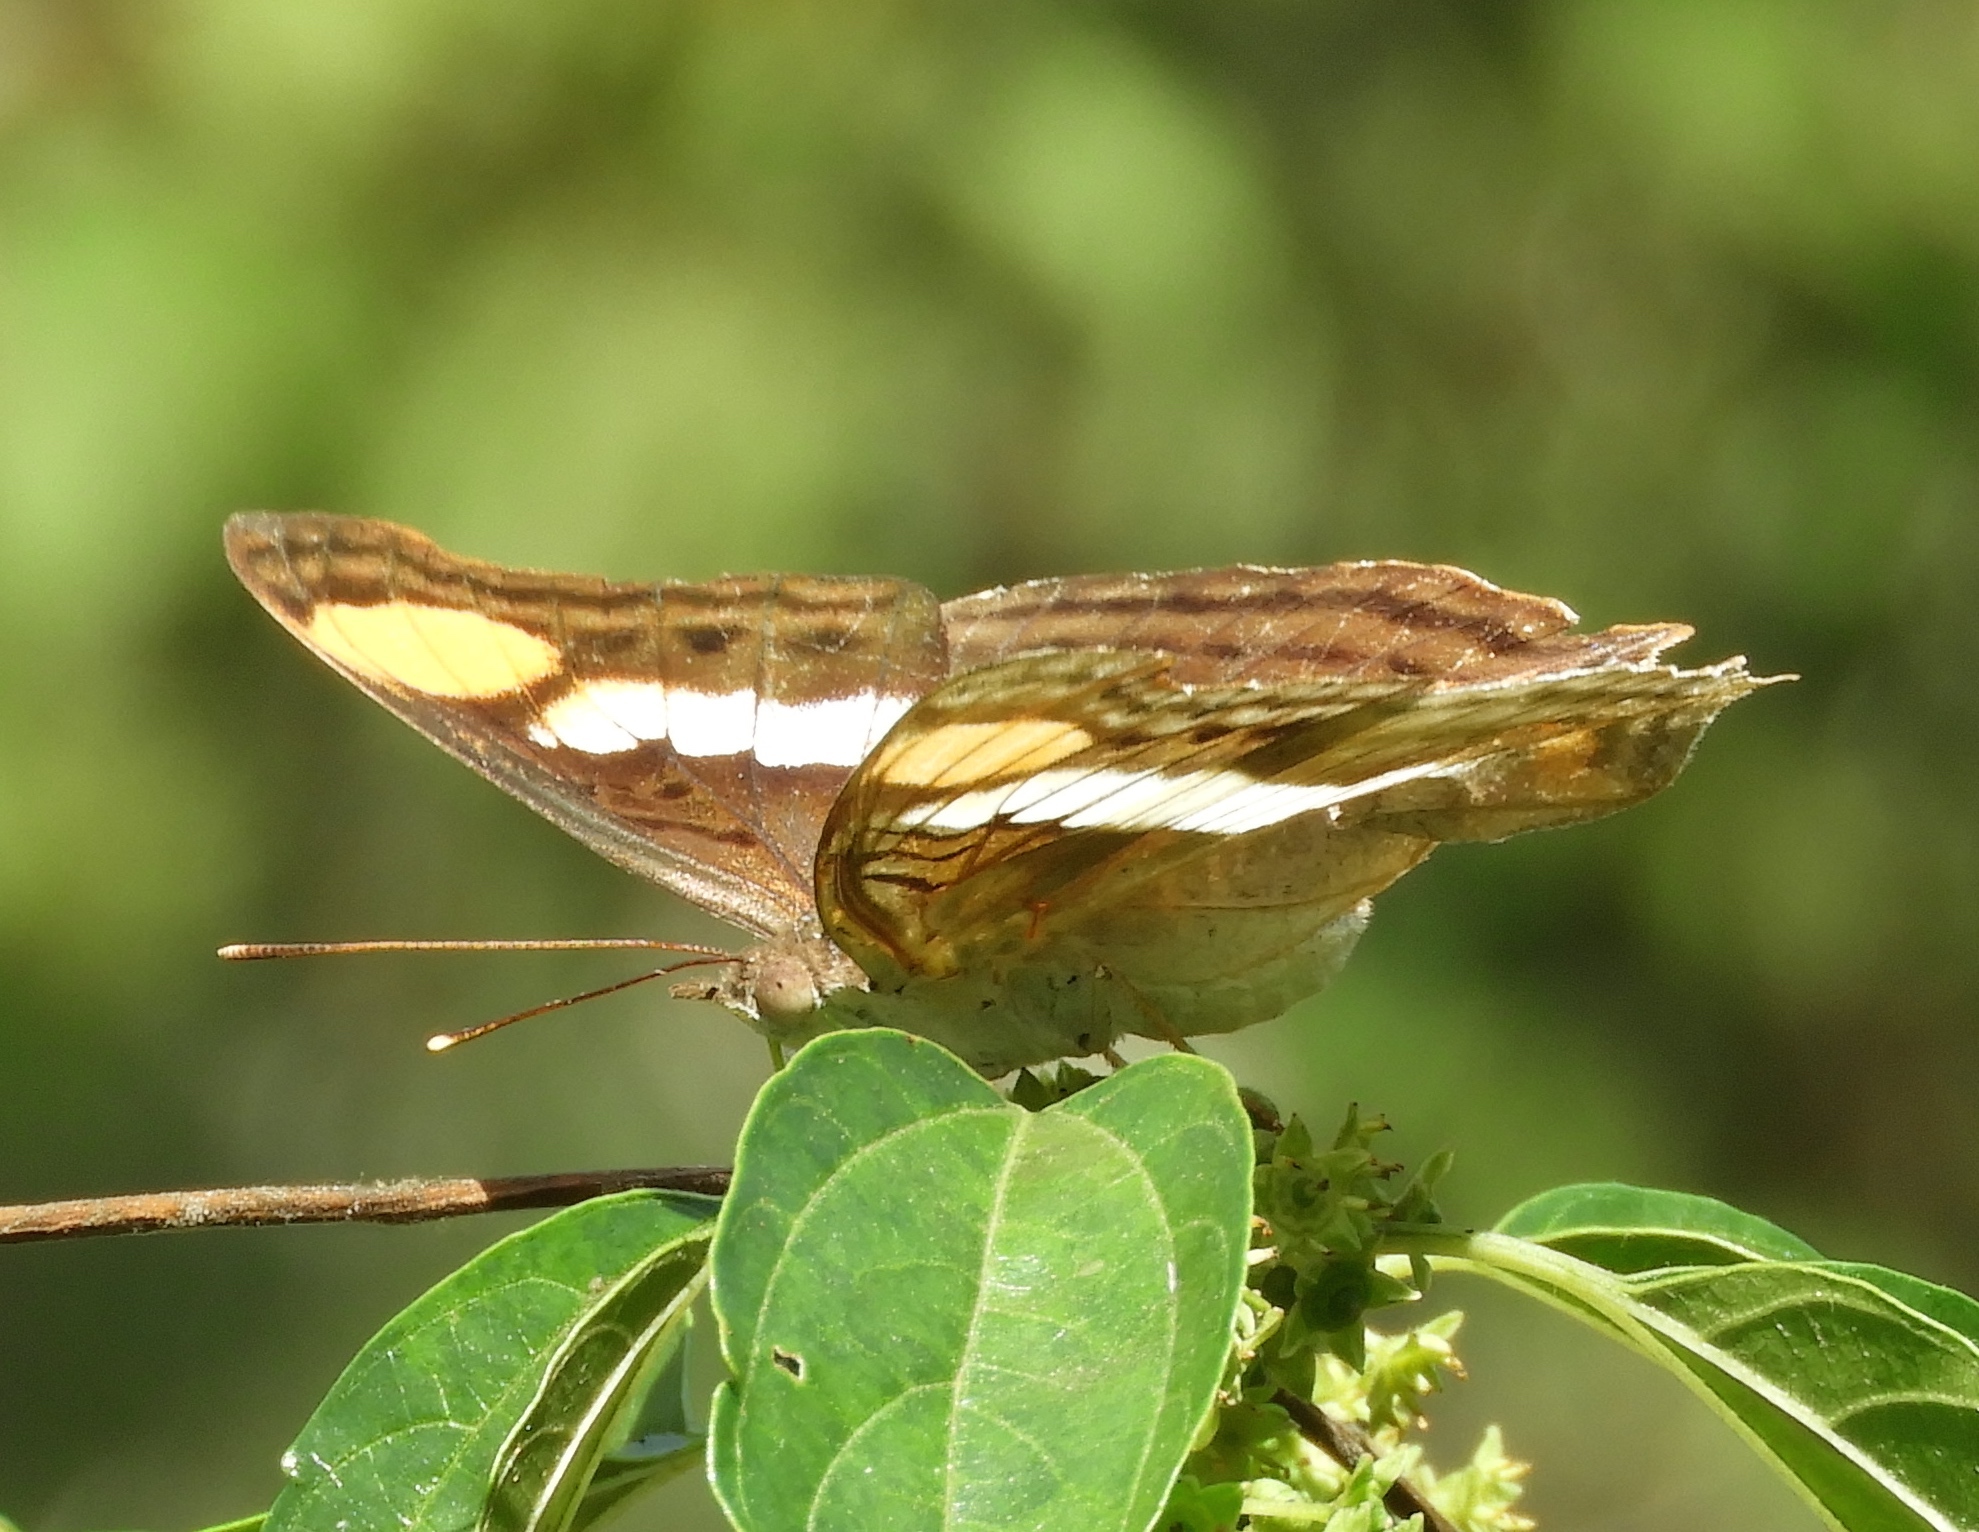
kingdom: Animalia
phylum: Arthropoda
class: Insecta
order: Lepidoptera
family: Nymphalidae
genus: Doxocopa
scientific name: Doxocopa laure
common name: Silver emperor
